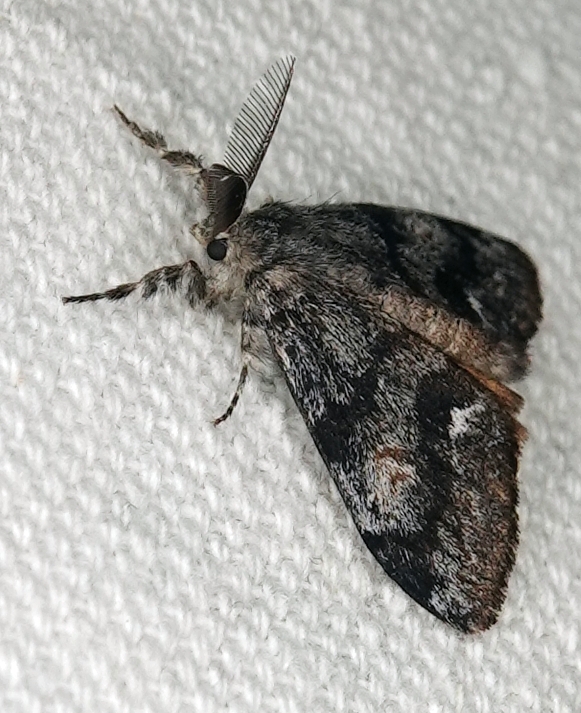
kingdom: Animalia
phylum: Arthropoda
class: Insecta
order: Lepidoptera
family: Erebidae
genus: Orgyia
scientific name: Orgyia pseudotsugata
